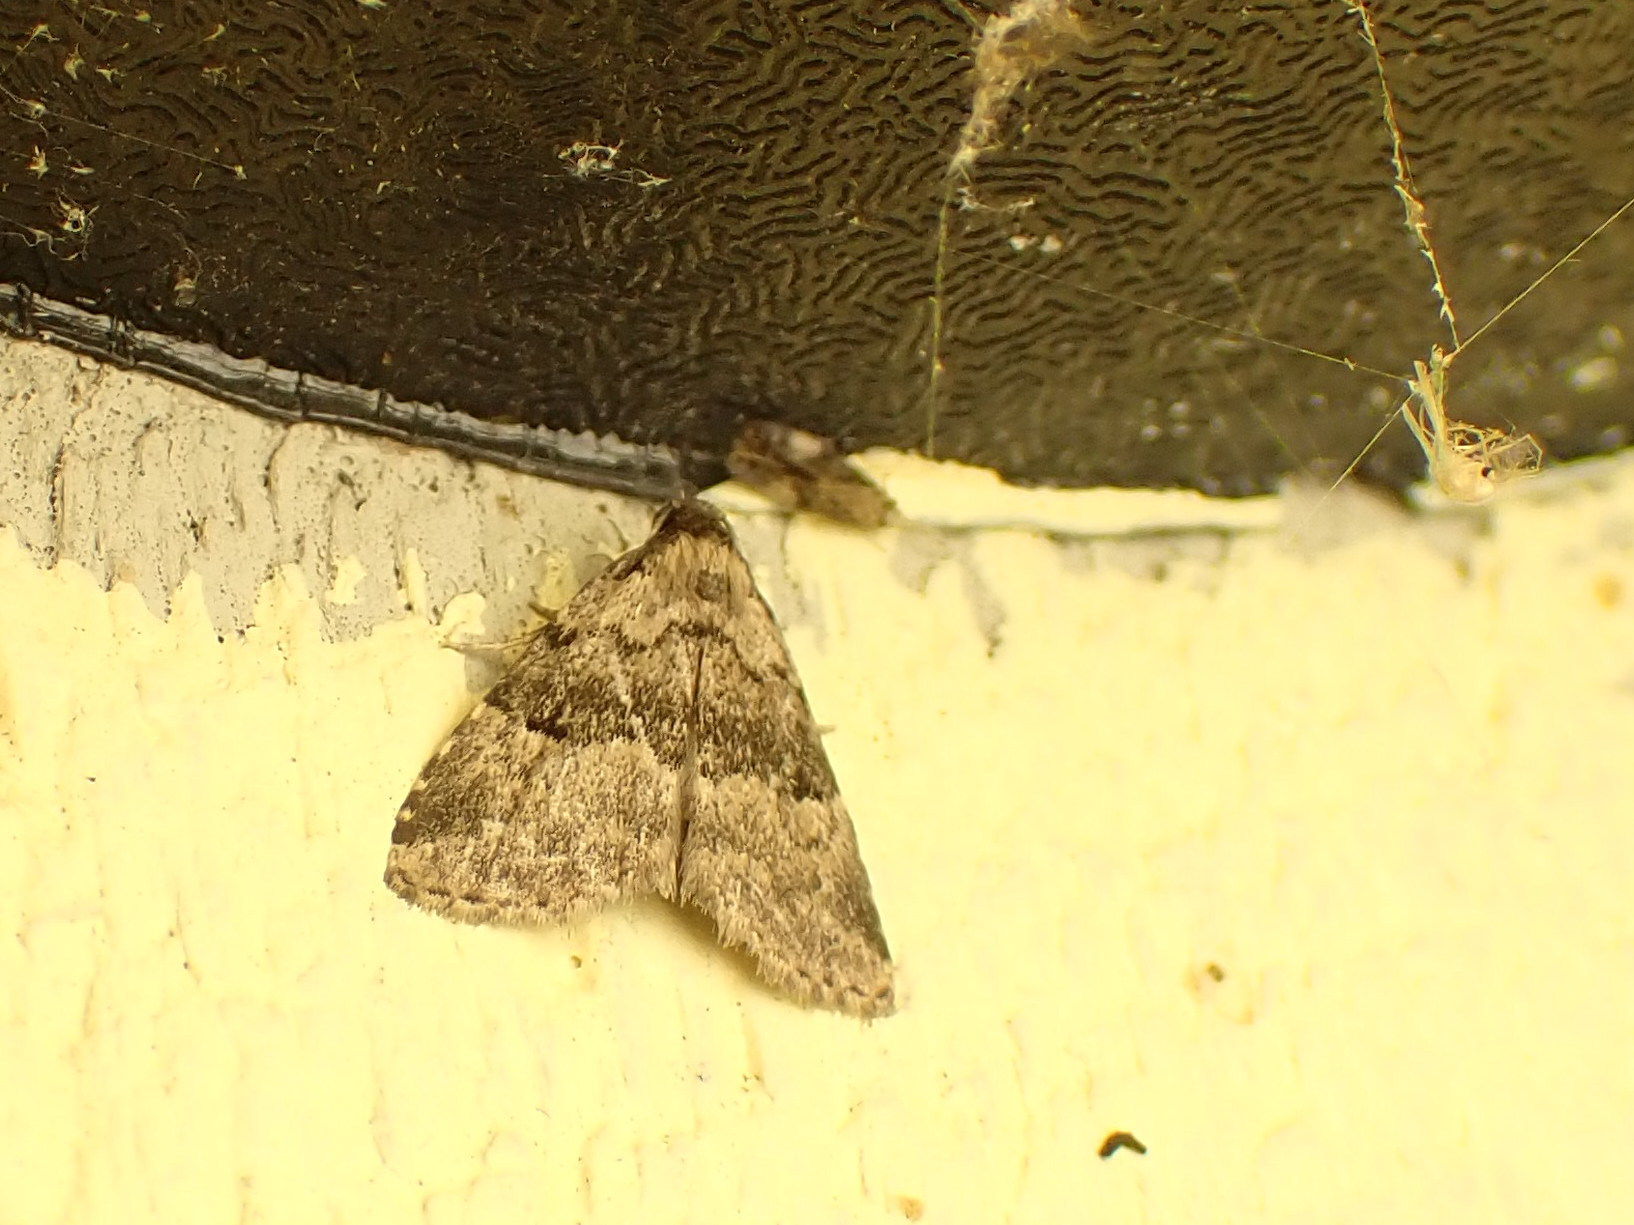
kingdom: Animalia
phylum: Arthropoda
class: Insecta
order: Lepidoptera
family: Erebidae
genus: Dyspyralis
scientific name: Dyspyralis illocata
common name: Visitation moth
